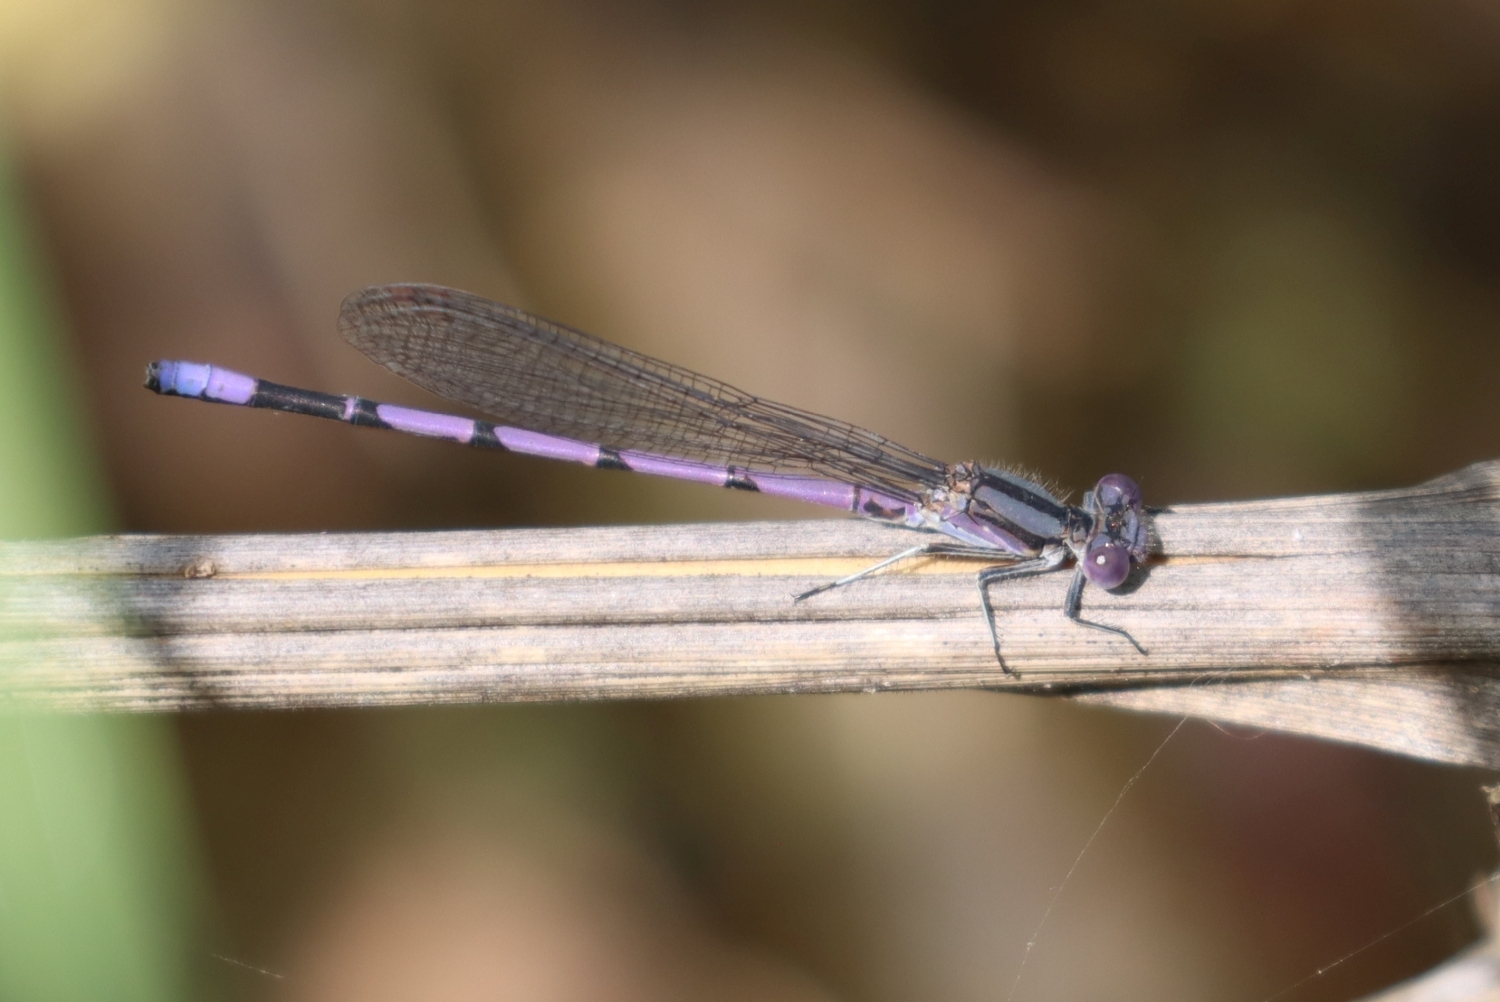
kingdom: Animalia
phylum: Arthropoda
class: Insecta
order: Odonata
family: Coenagrionidae
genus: Argia
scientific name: Argia fumipennis
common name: Variable dancer
